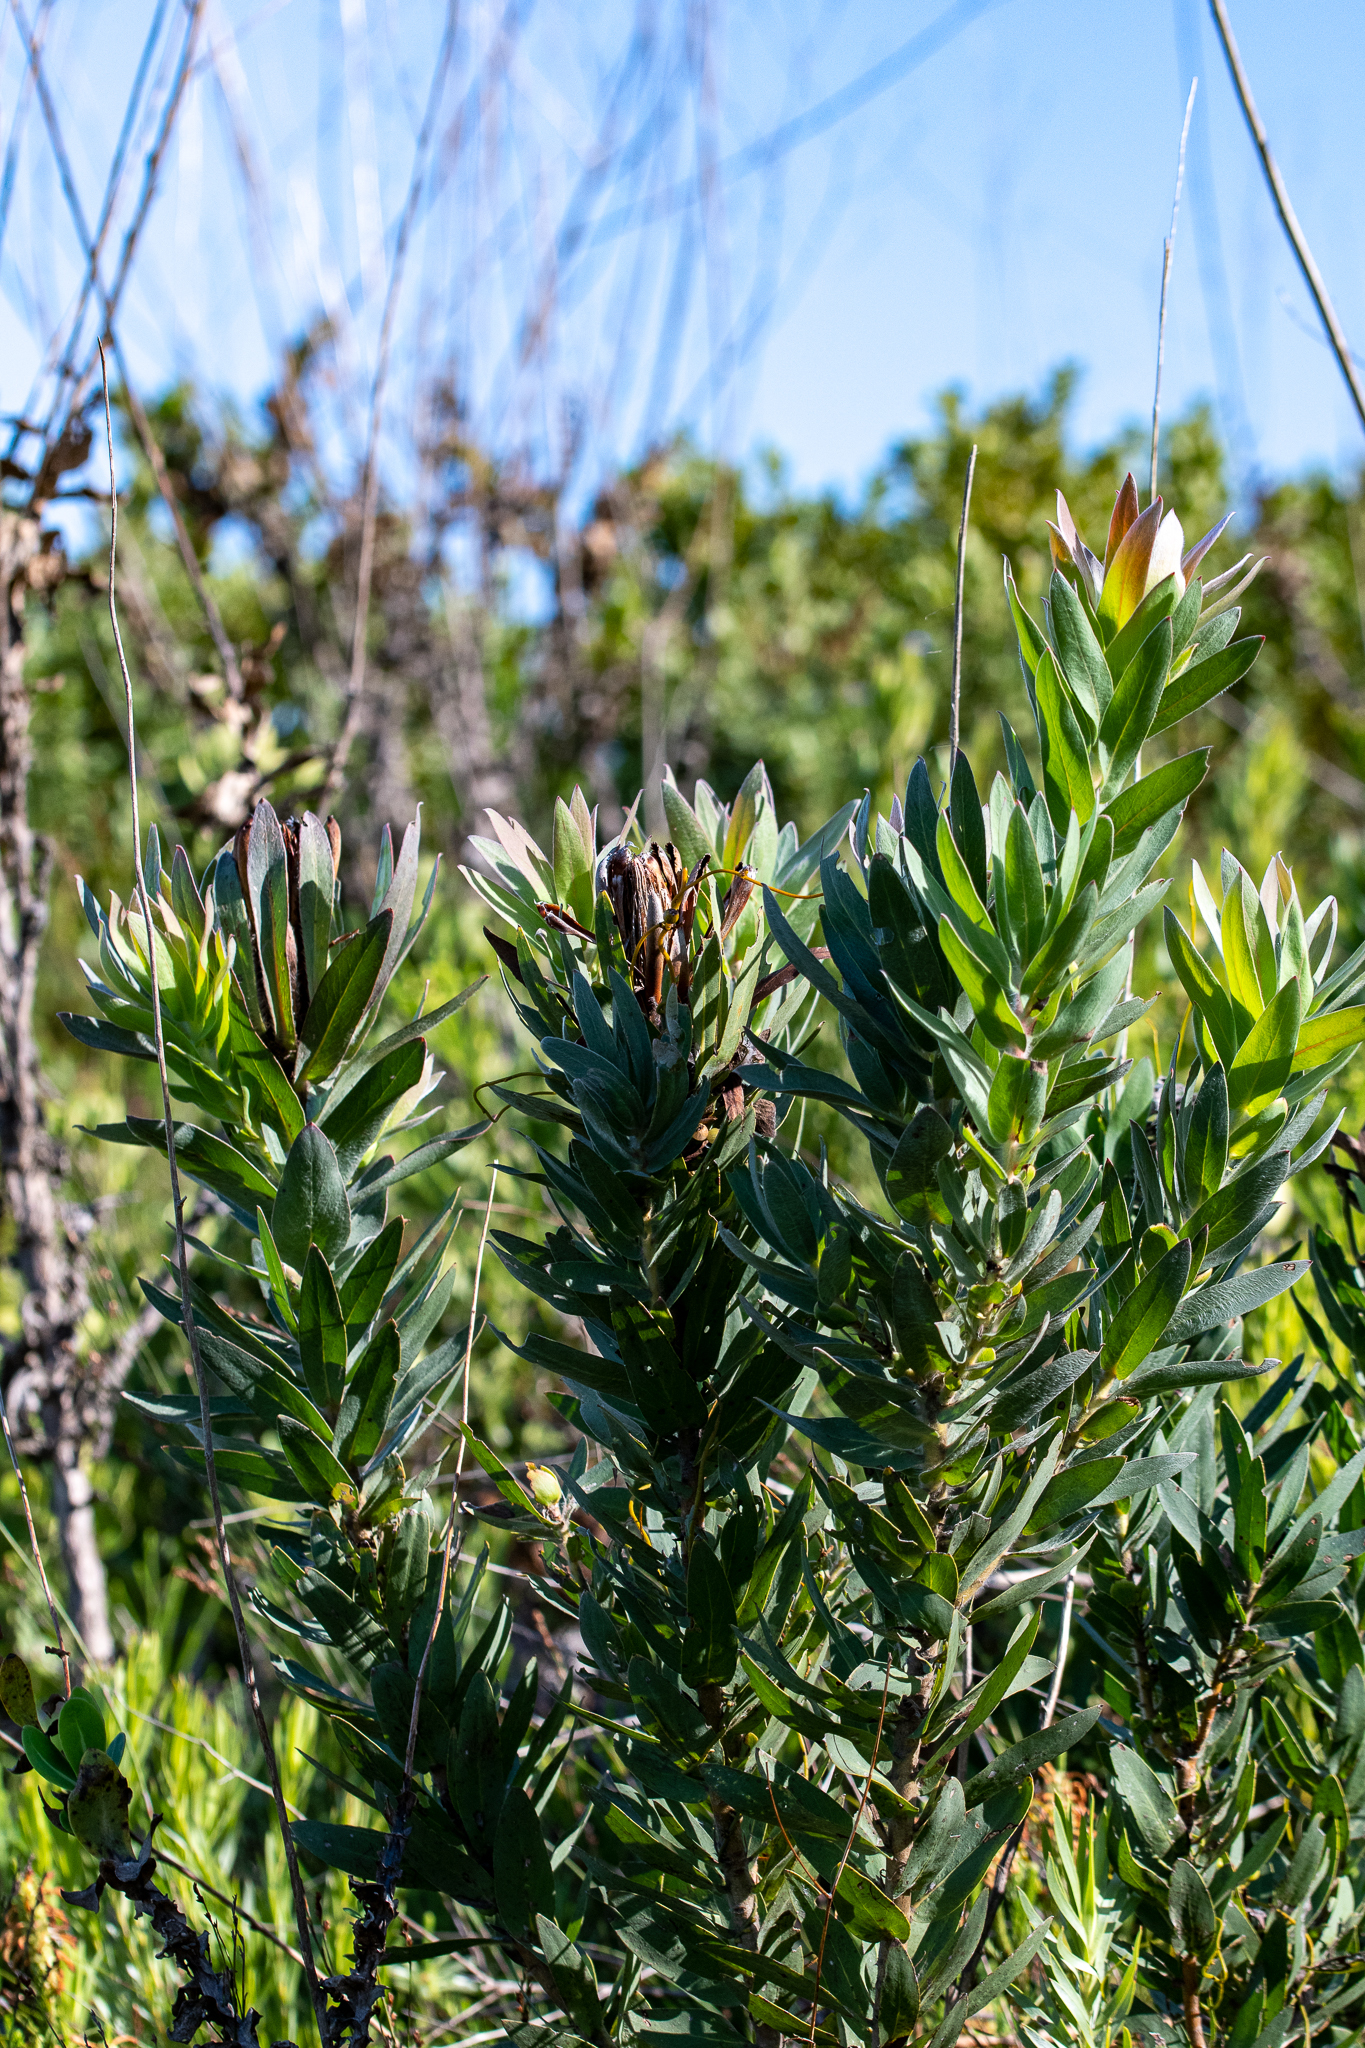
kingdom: Plantae
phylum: Tracheophyta
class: Magnoliopsida
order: Proteales
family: Proteaceae
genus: Protea
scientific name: Protea coronata
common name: Green sugarbush
